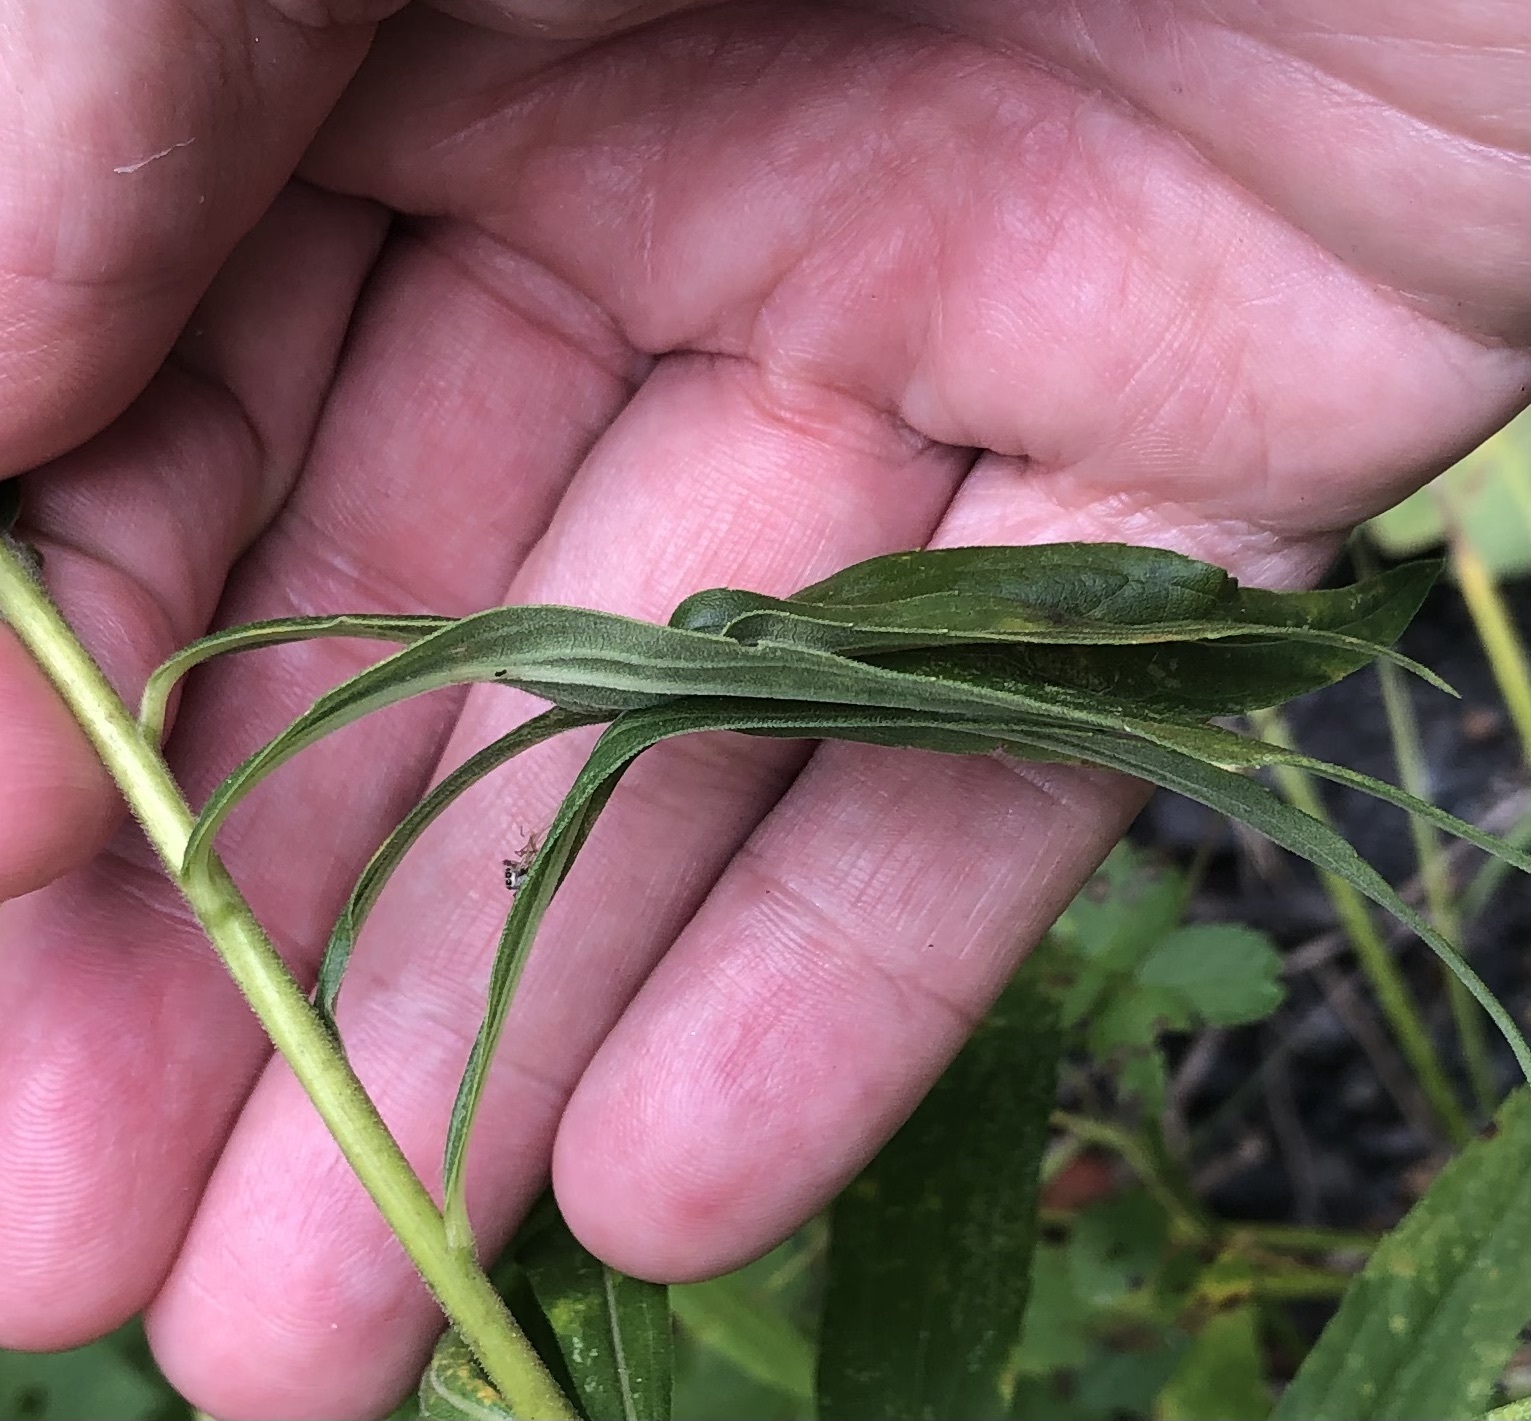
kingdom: Animalia
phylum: Arthropoda
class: Insecta
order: Diptera
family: Cecidomyiidae
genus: Asphondylia
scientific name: Asphondylia solidaginis
